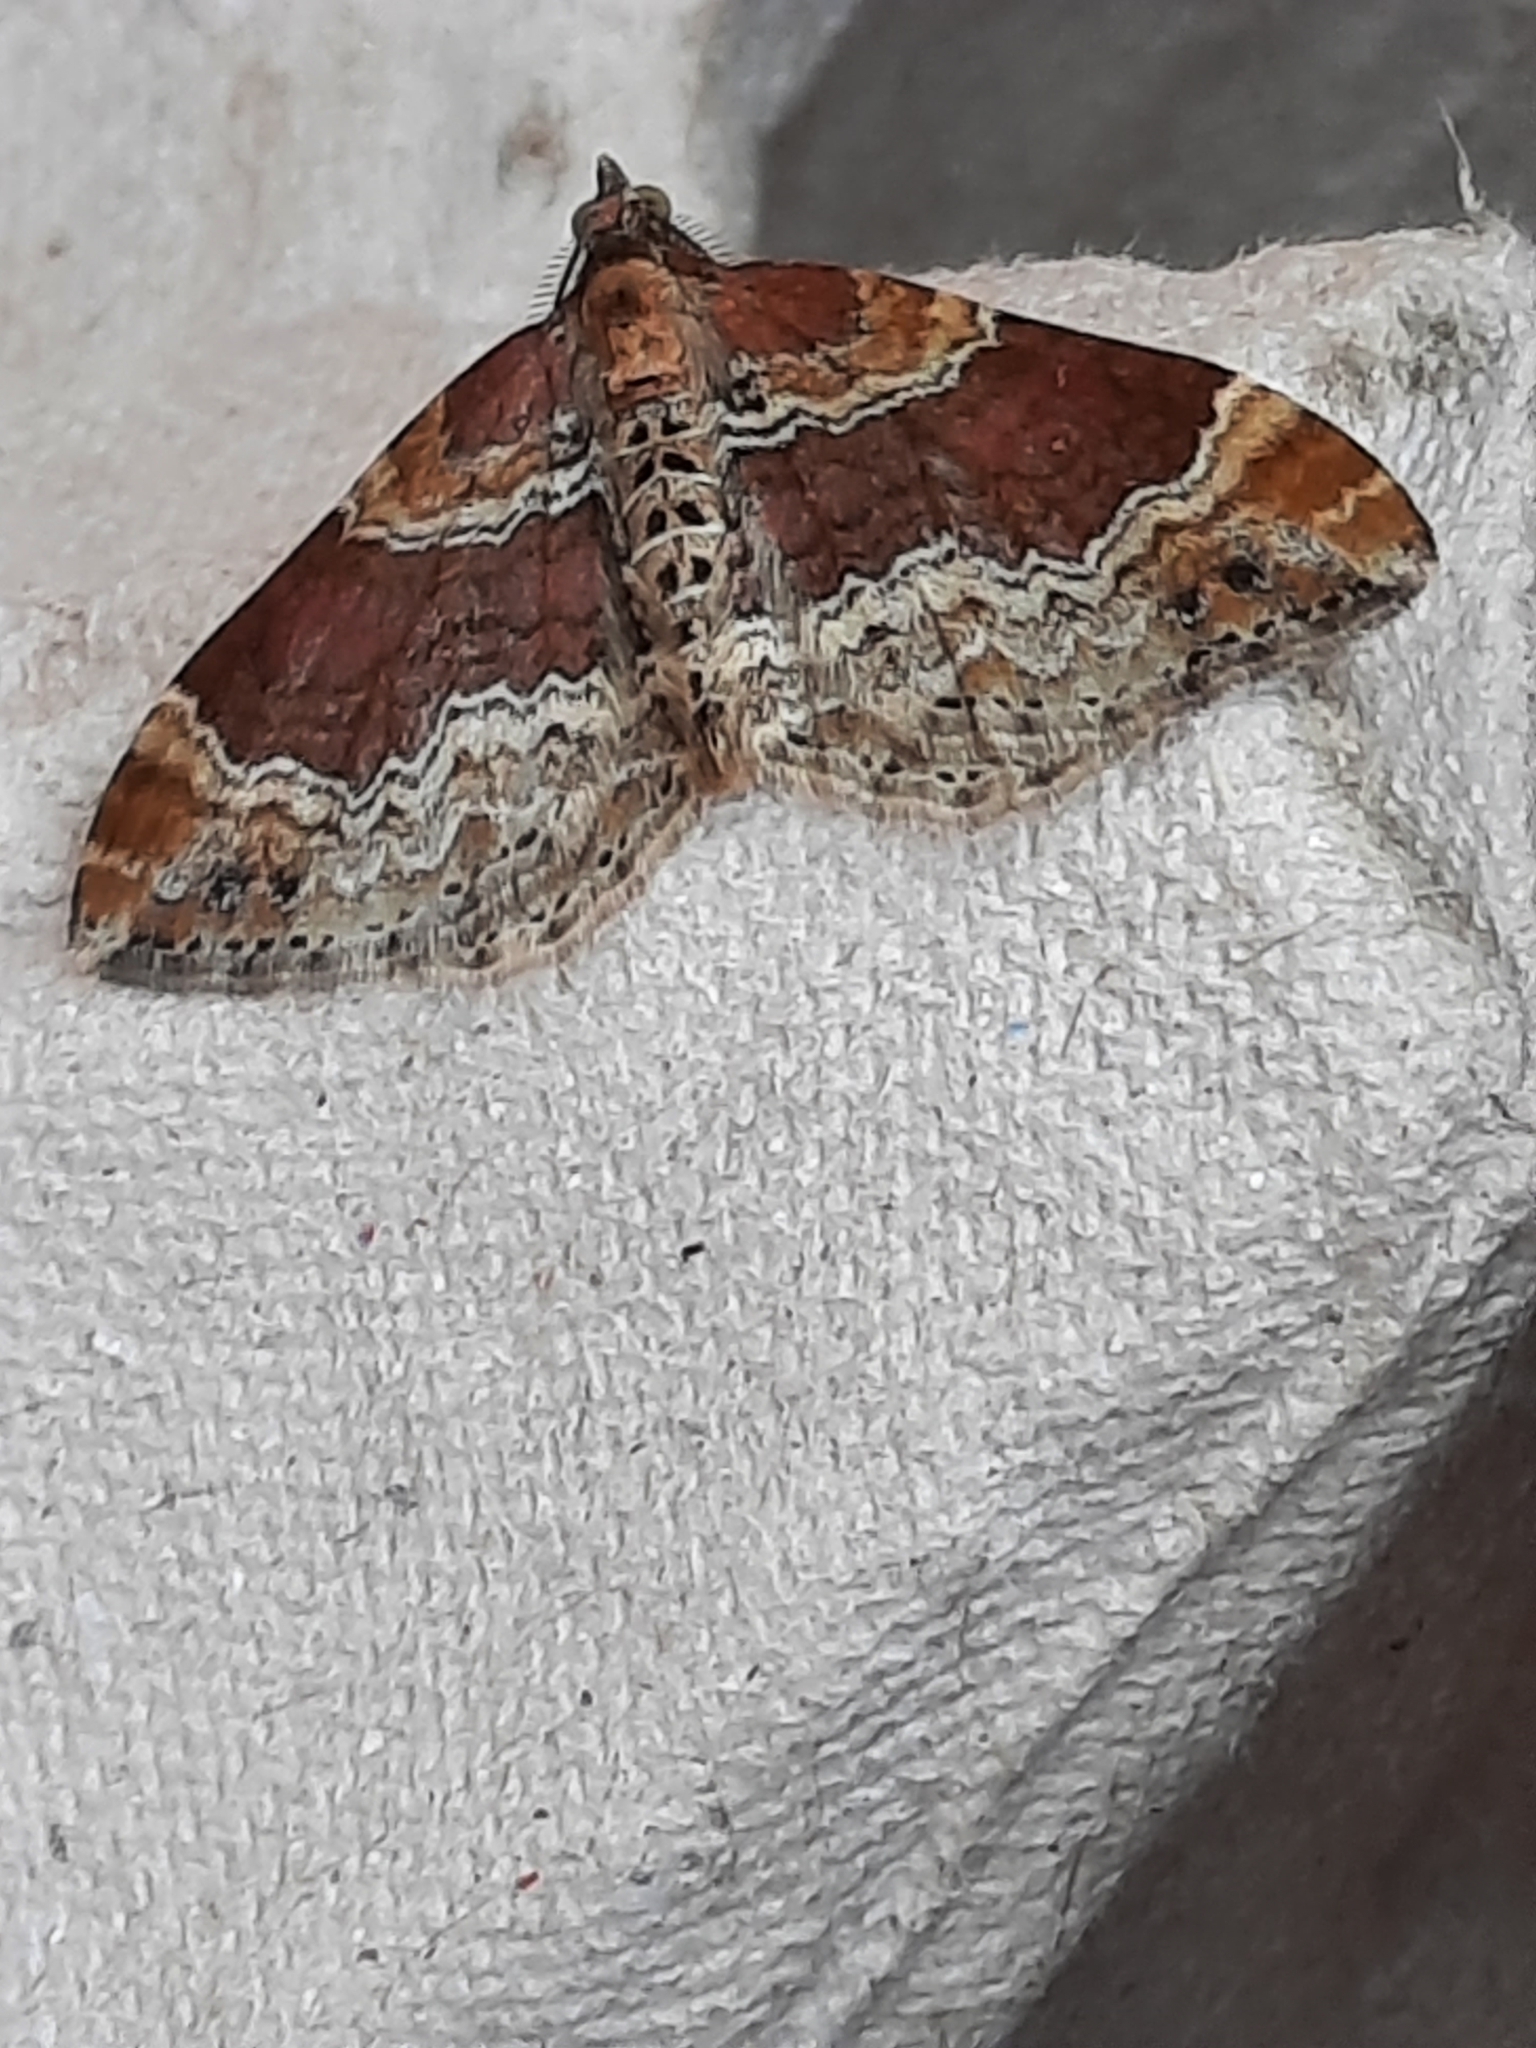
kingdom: Animalia
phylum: Arthropoda
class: Insecta
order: Lepidoptera
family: Geometridae
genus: Xanthorhoe
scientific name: Xanthorhoe spadicearia
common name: Red twin-spot carpet
